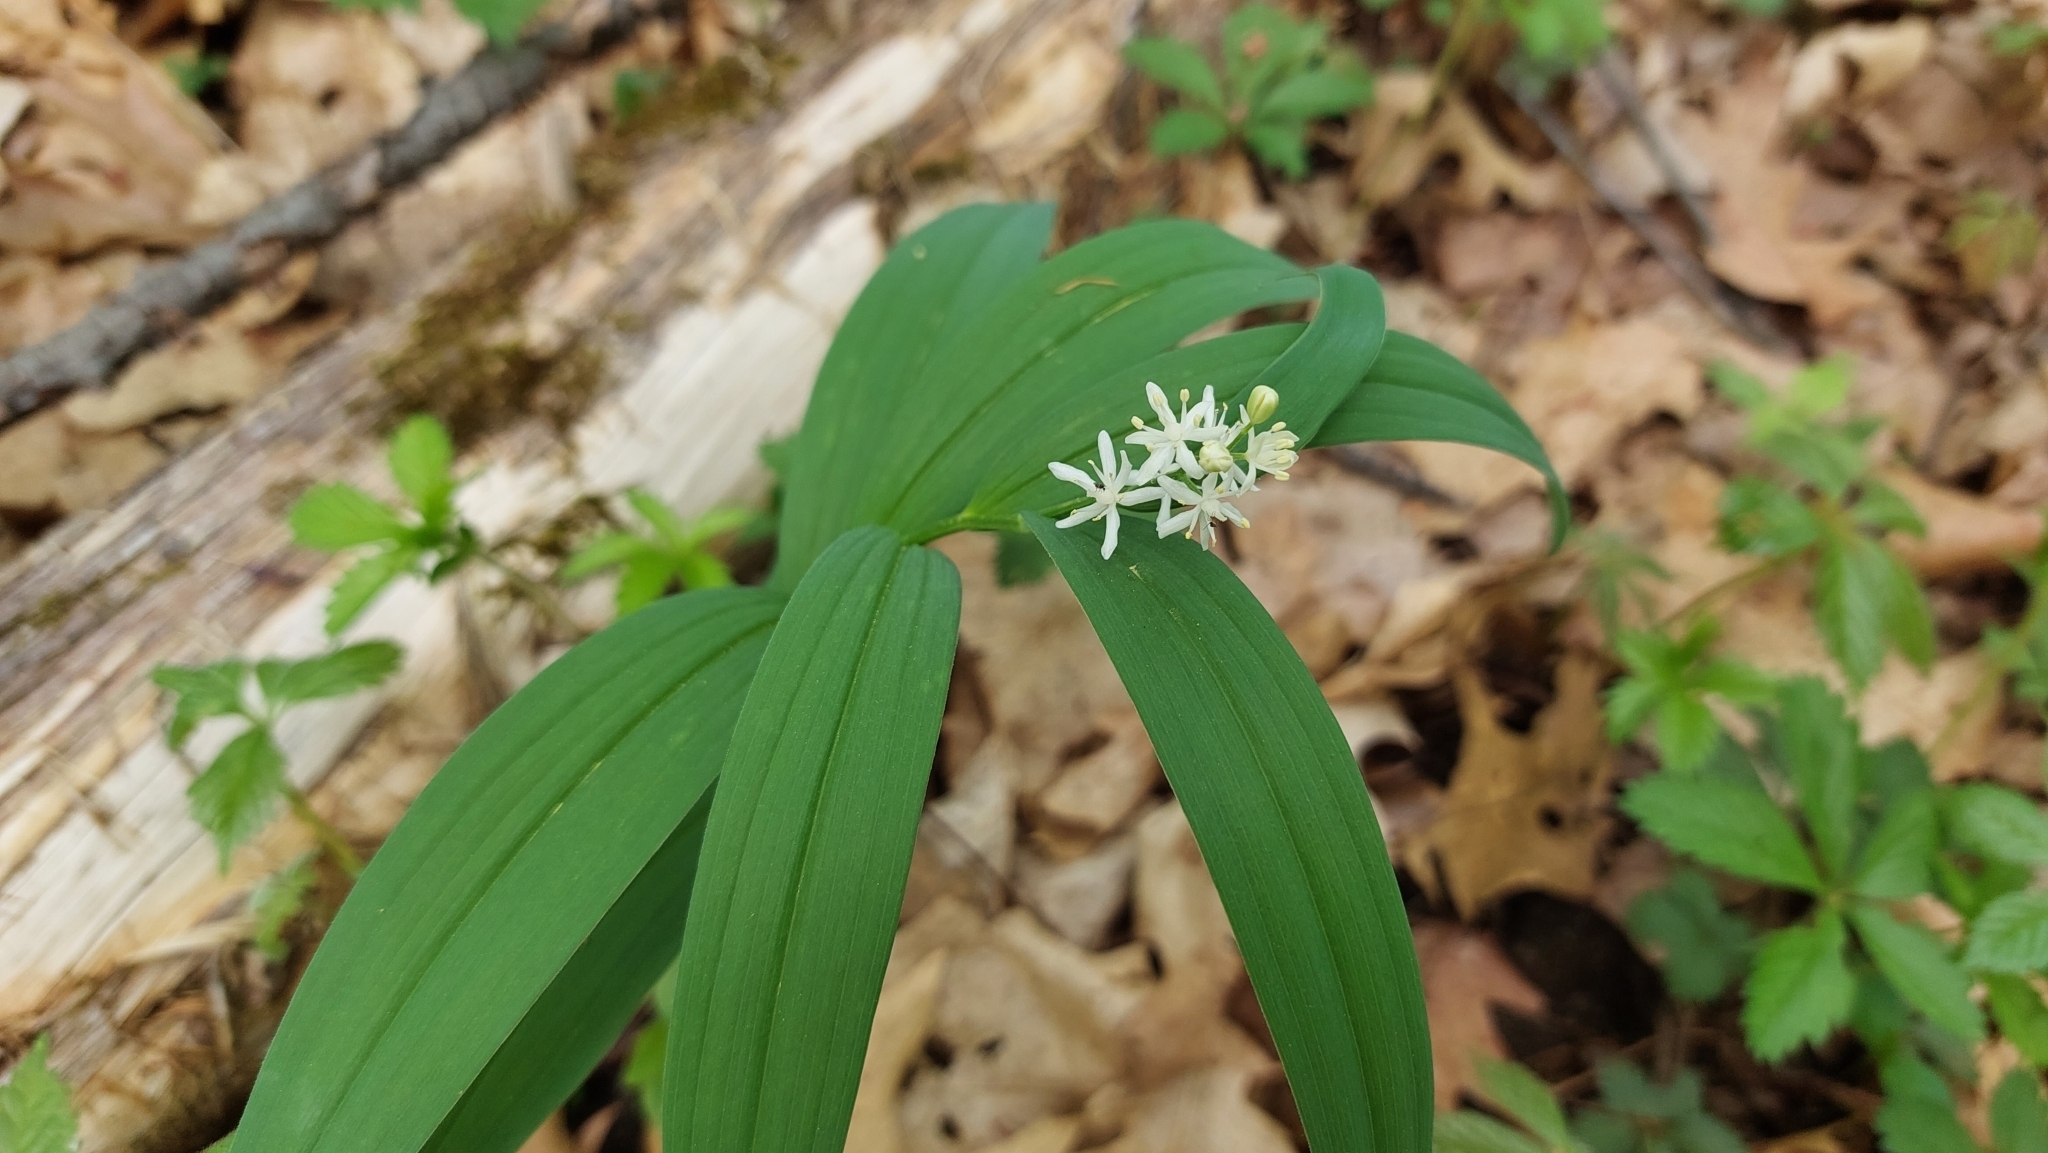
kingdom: Plantae
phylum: Tracheophyta
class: Liliopsida
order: Asparagales
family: Asparagaceae
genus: Maianthemum
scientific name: Maianthemum stellatum
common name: Little false solomon's seal
